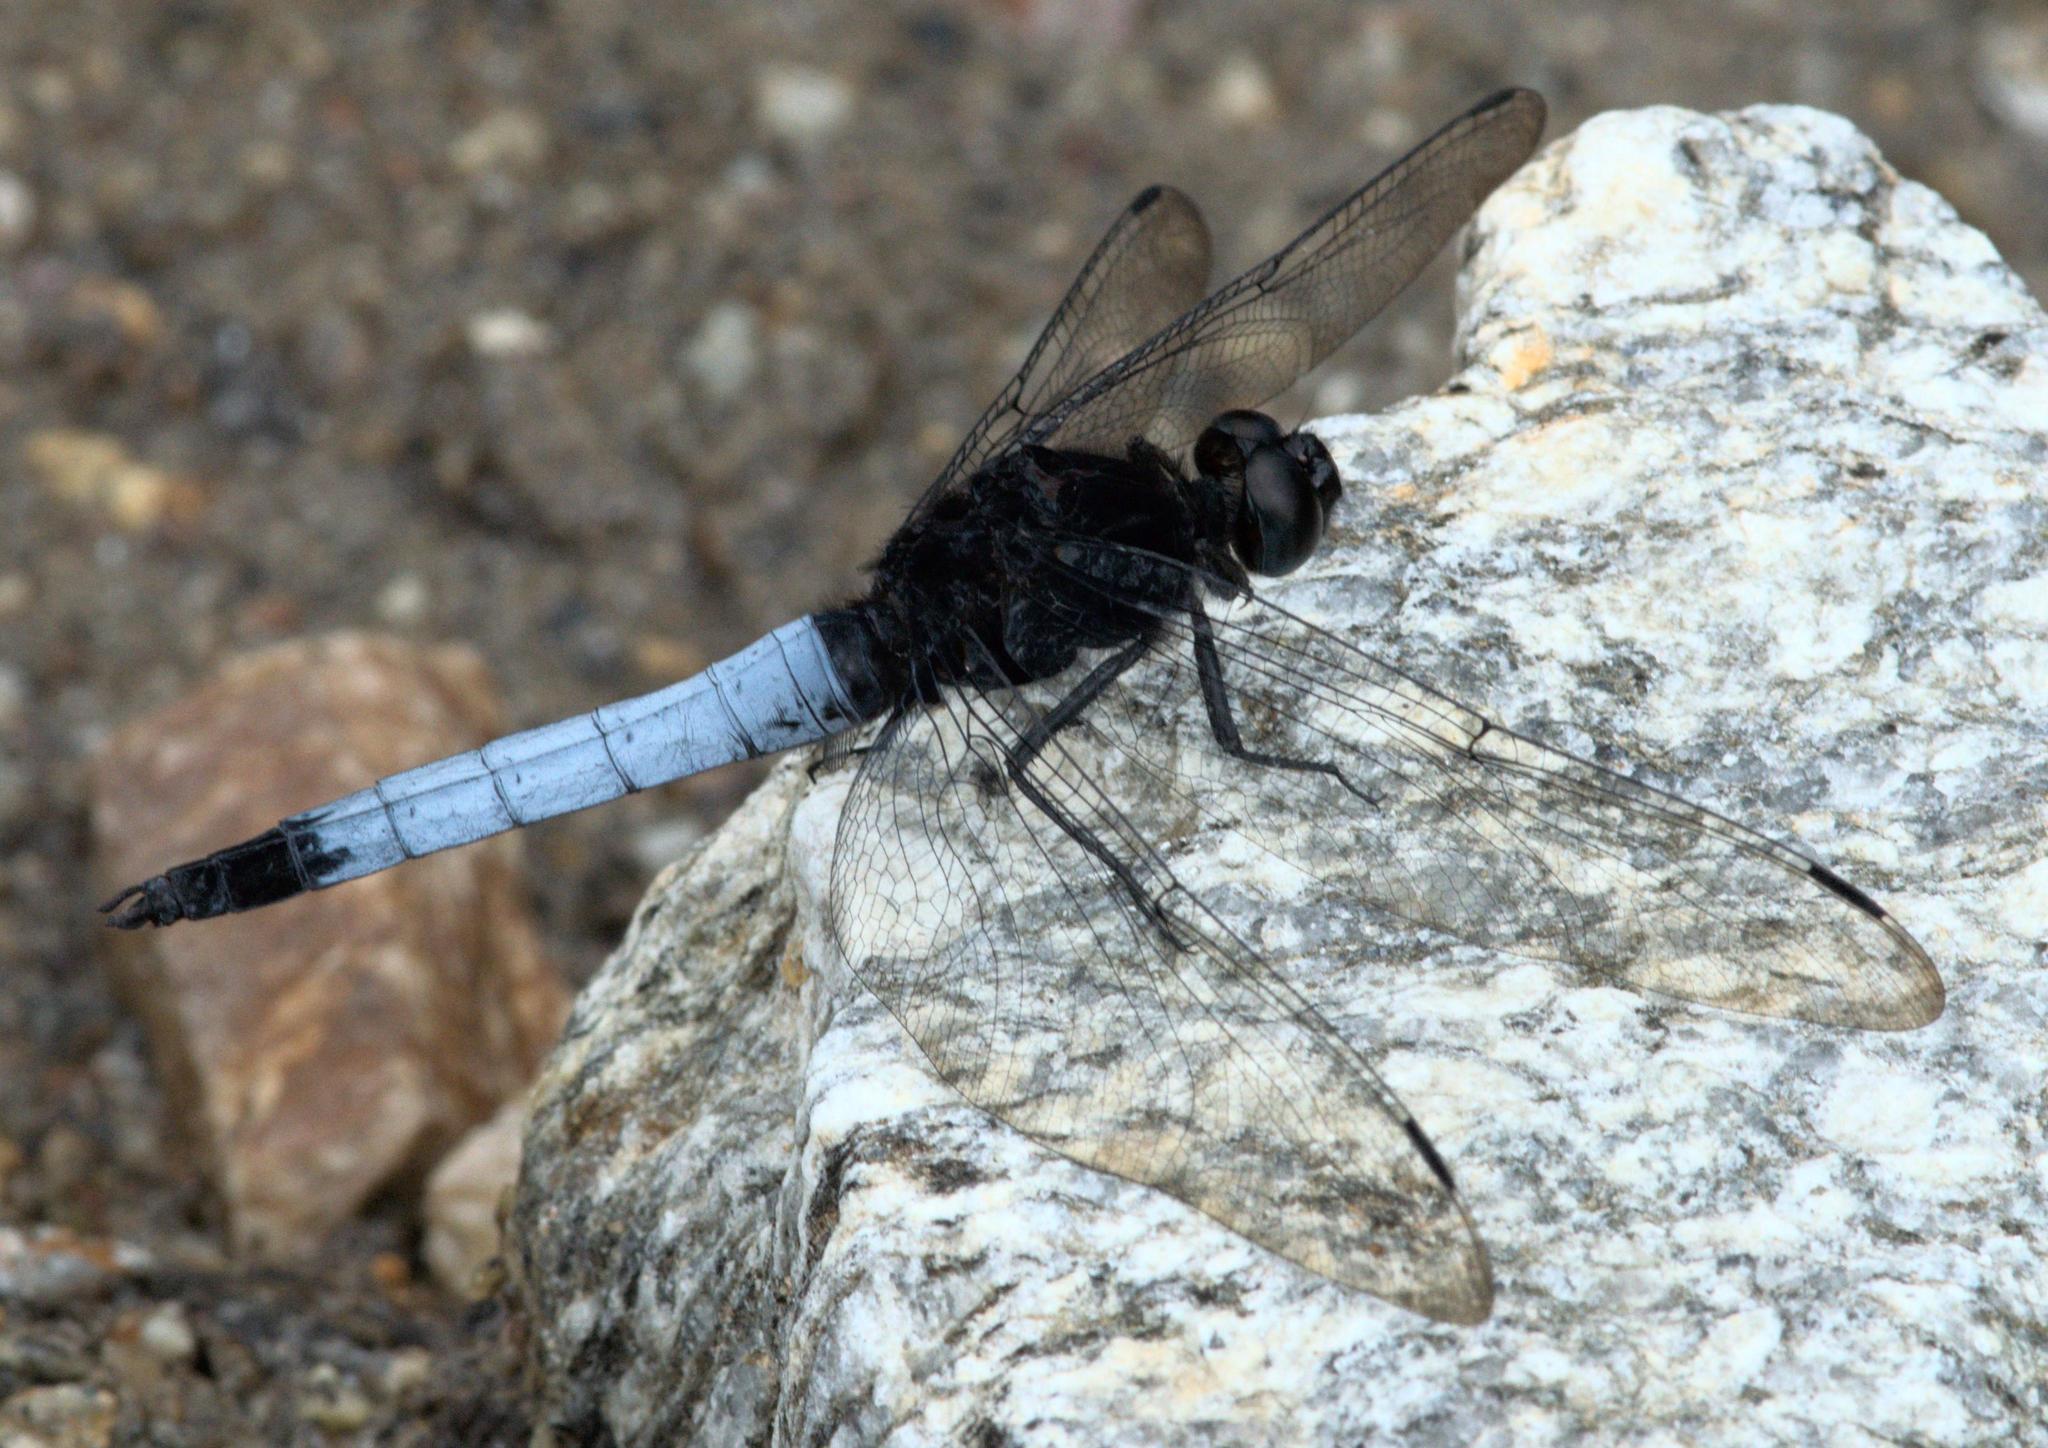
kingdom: Animalia
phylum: Arthropoda
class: Insecta
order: Odonata
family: Libellulidae
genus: Orthetrum
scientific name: Orthetrum triangulare
